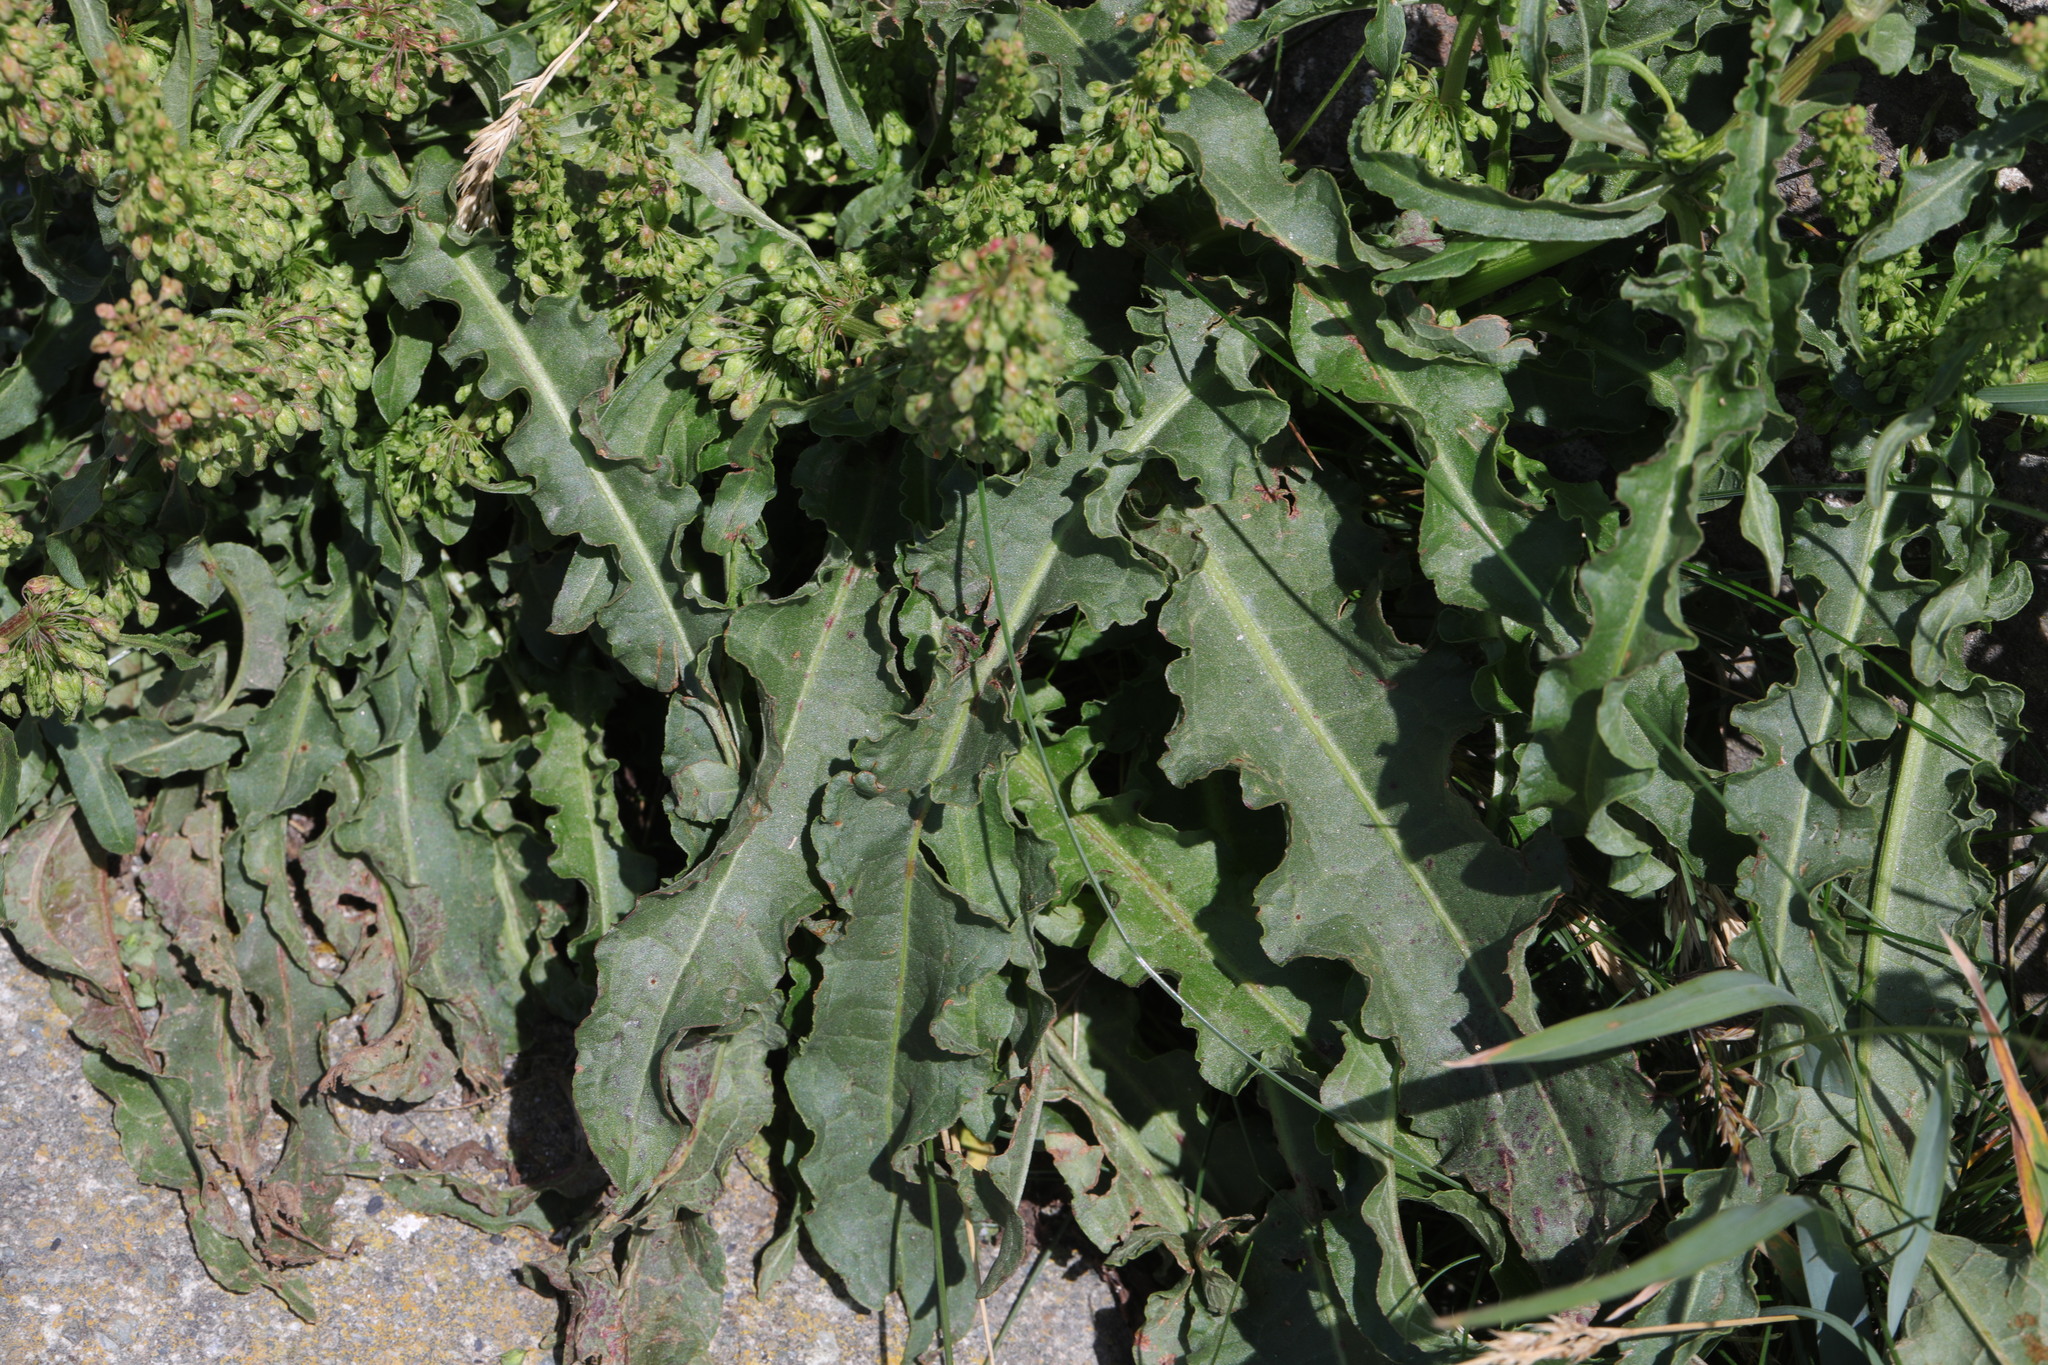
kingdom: Plantae
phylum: Tracheophyta
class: Magnoliopsida
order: Caryophyllales
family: Polygonaceae
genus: Rumex
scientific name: Rumex crispus
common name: Curled dock
